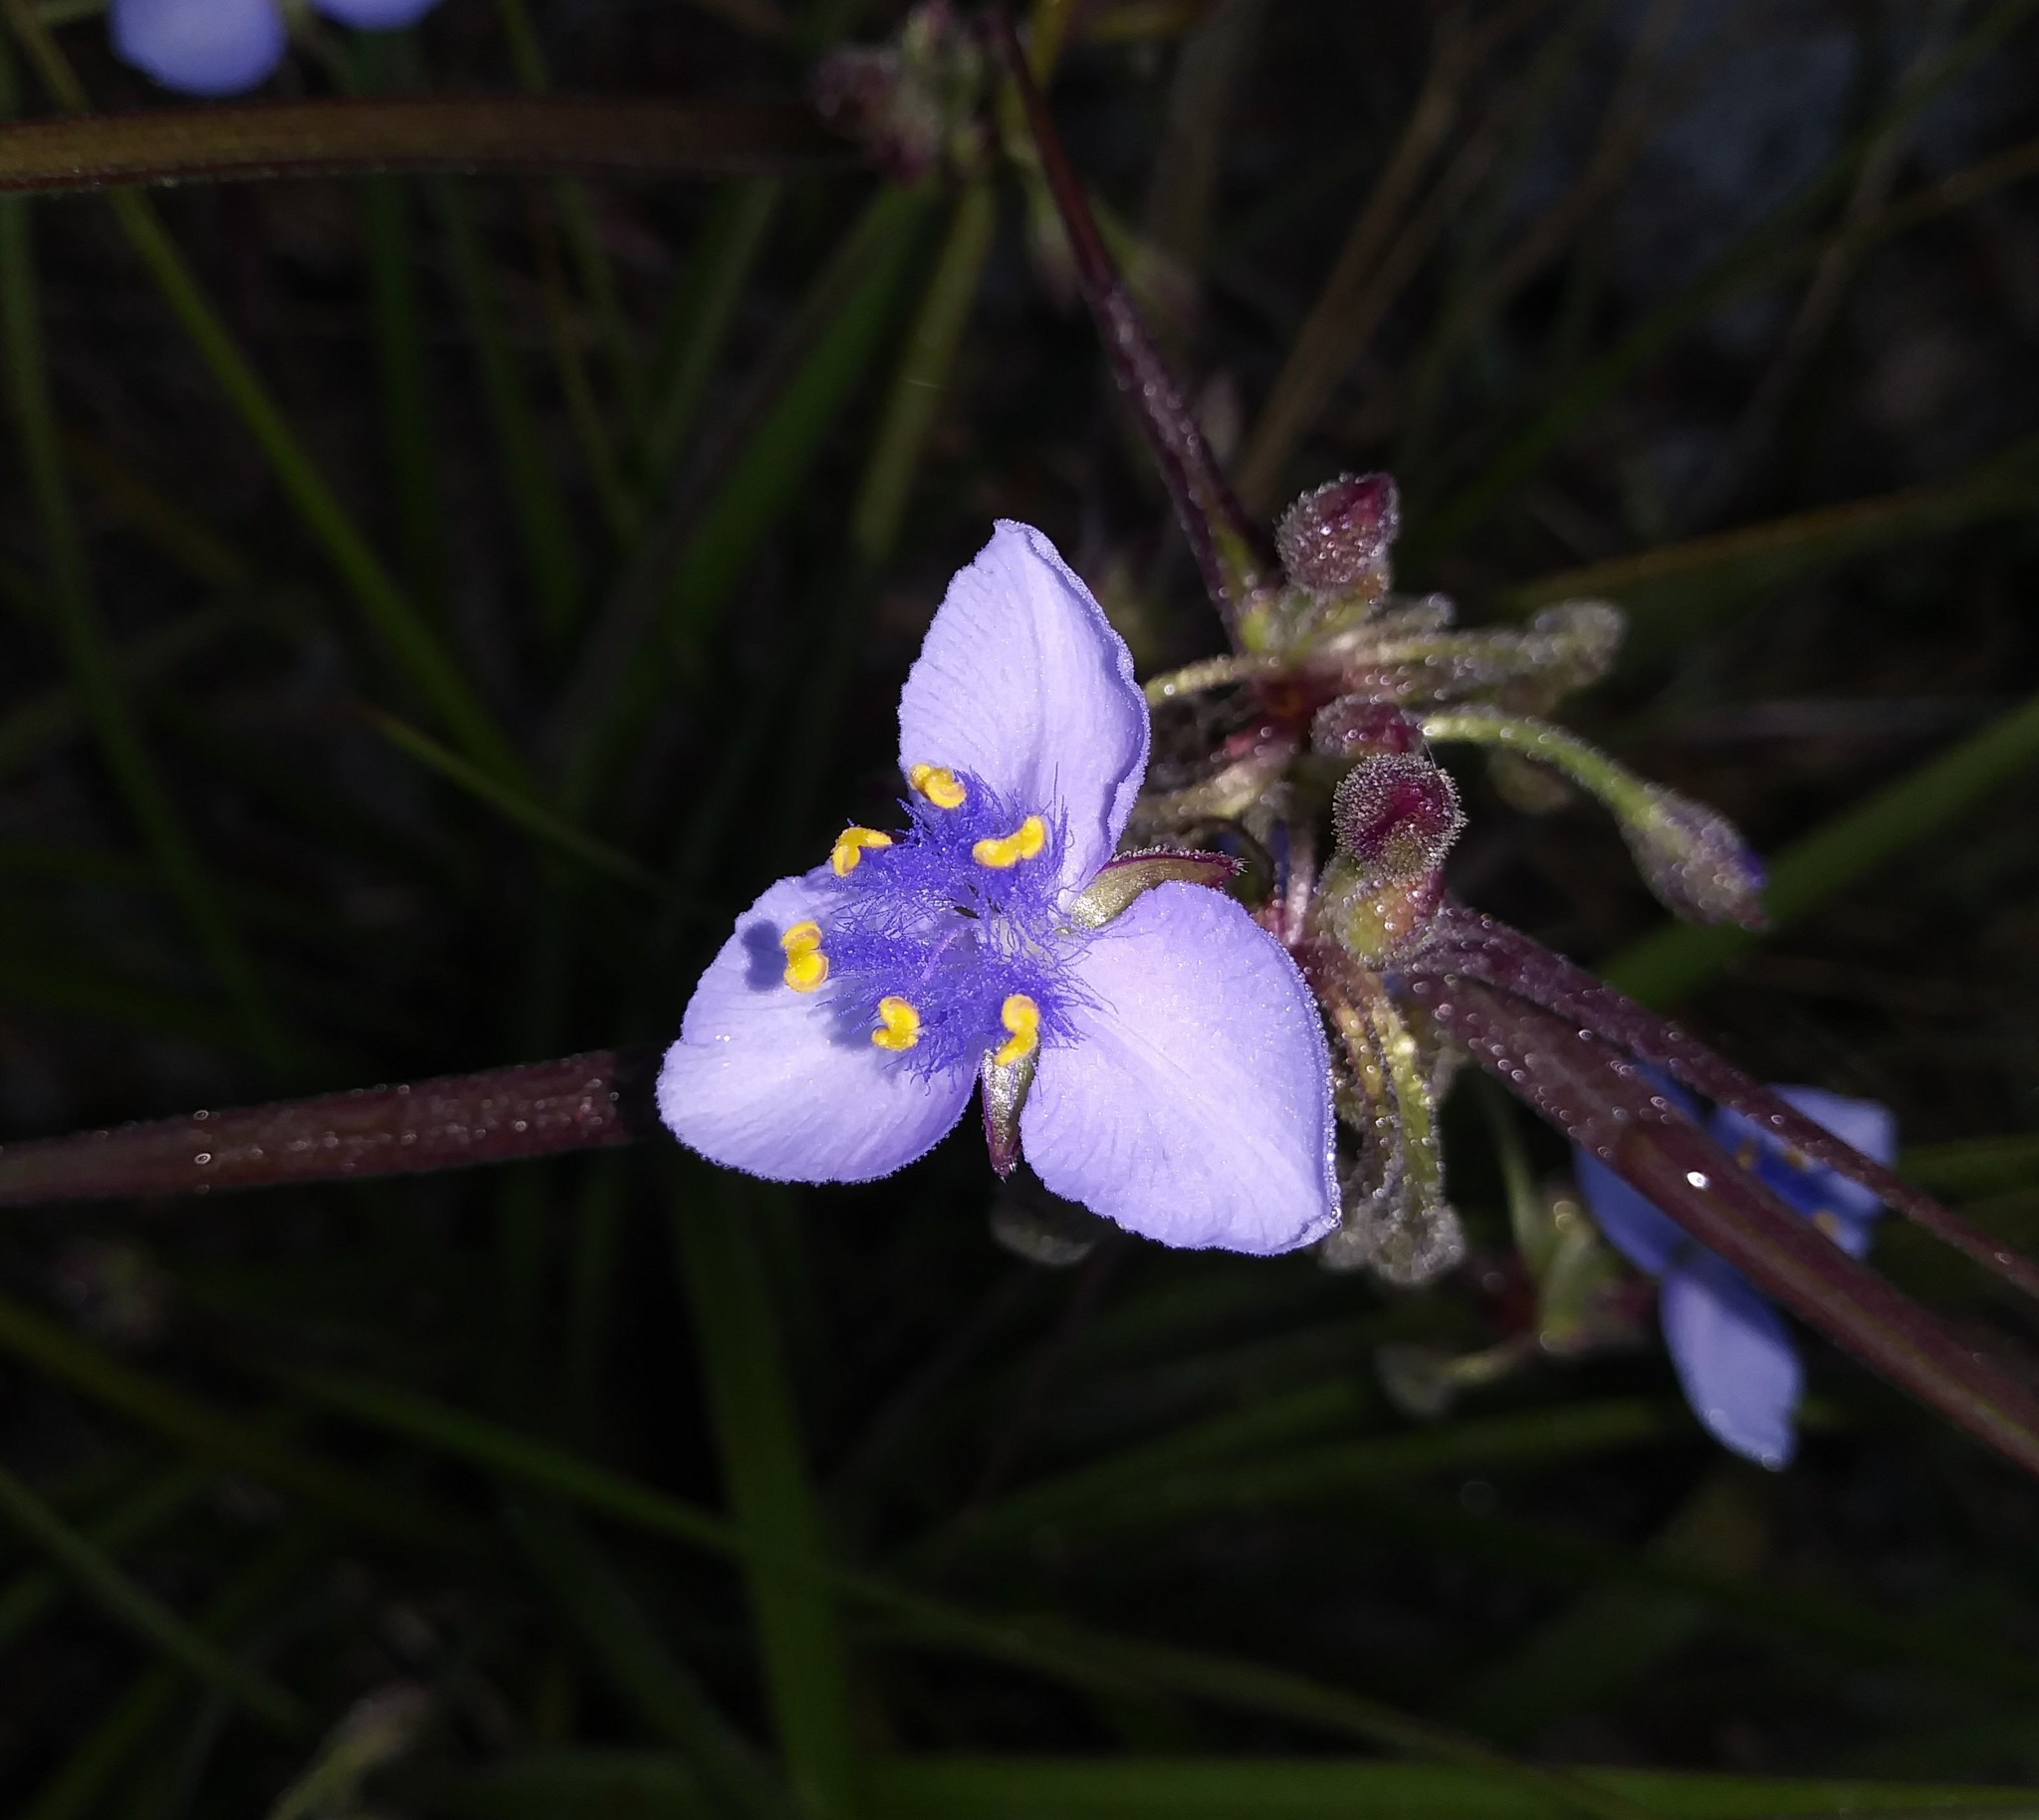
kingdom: Plantae
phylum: Tracheophyta
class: Liliopsida
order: Commelinales
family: Commelinaceae
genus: Tradescantia
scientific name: Tradescantia roseolens
